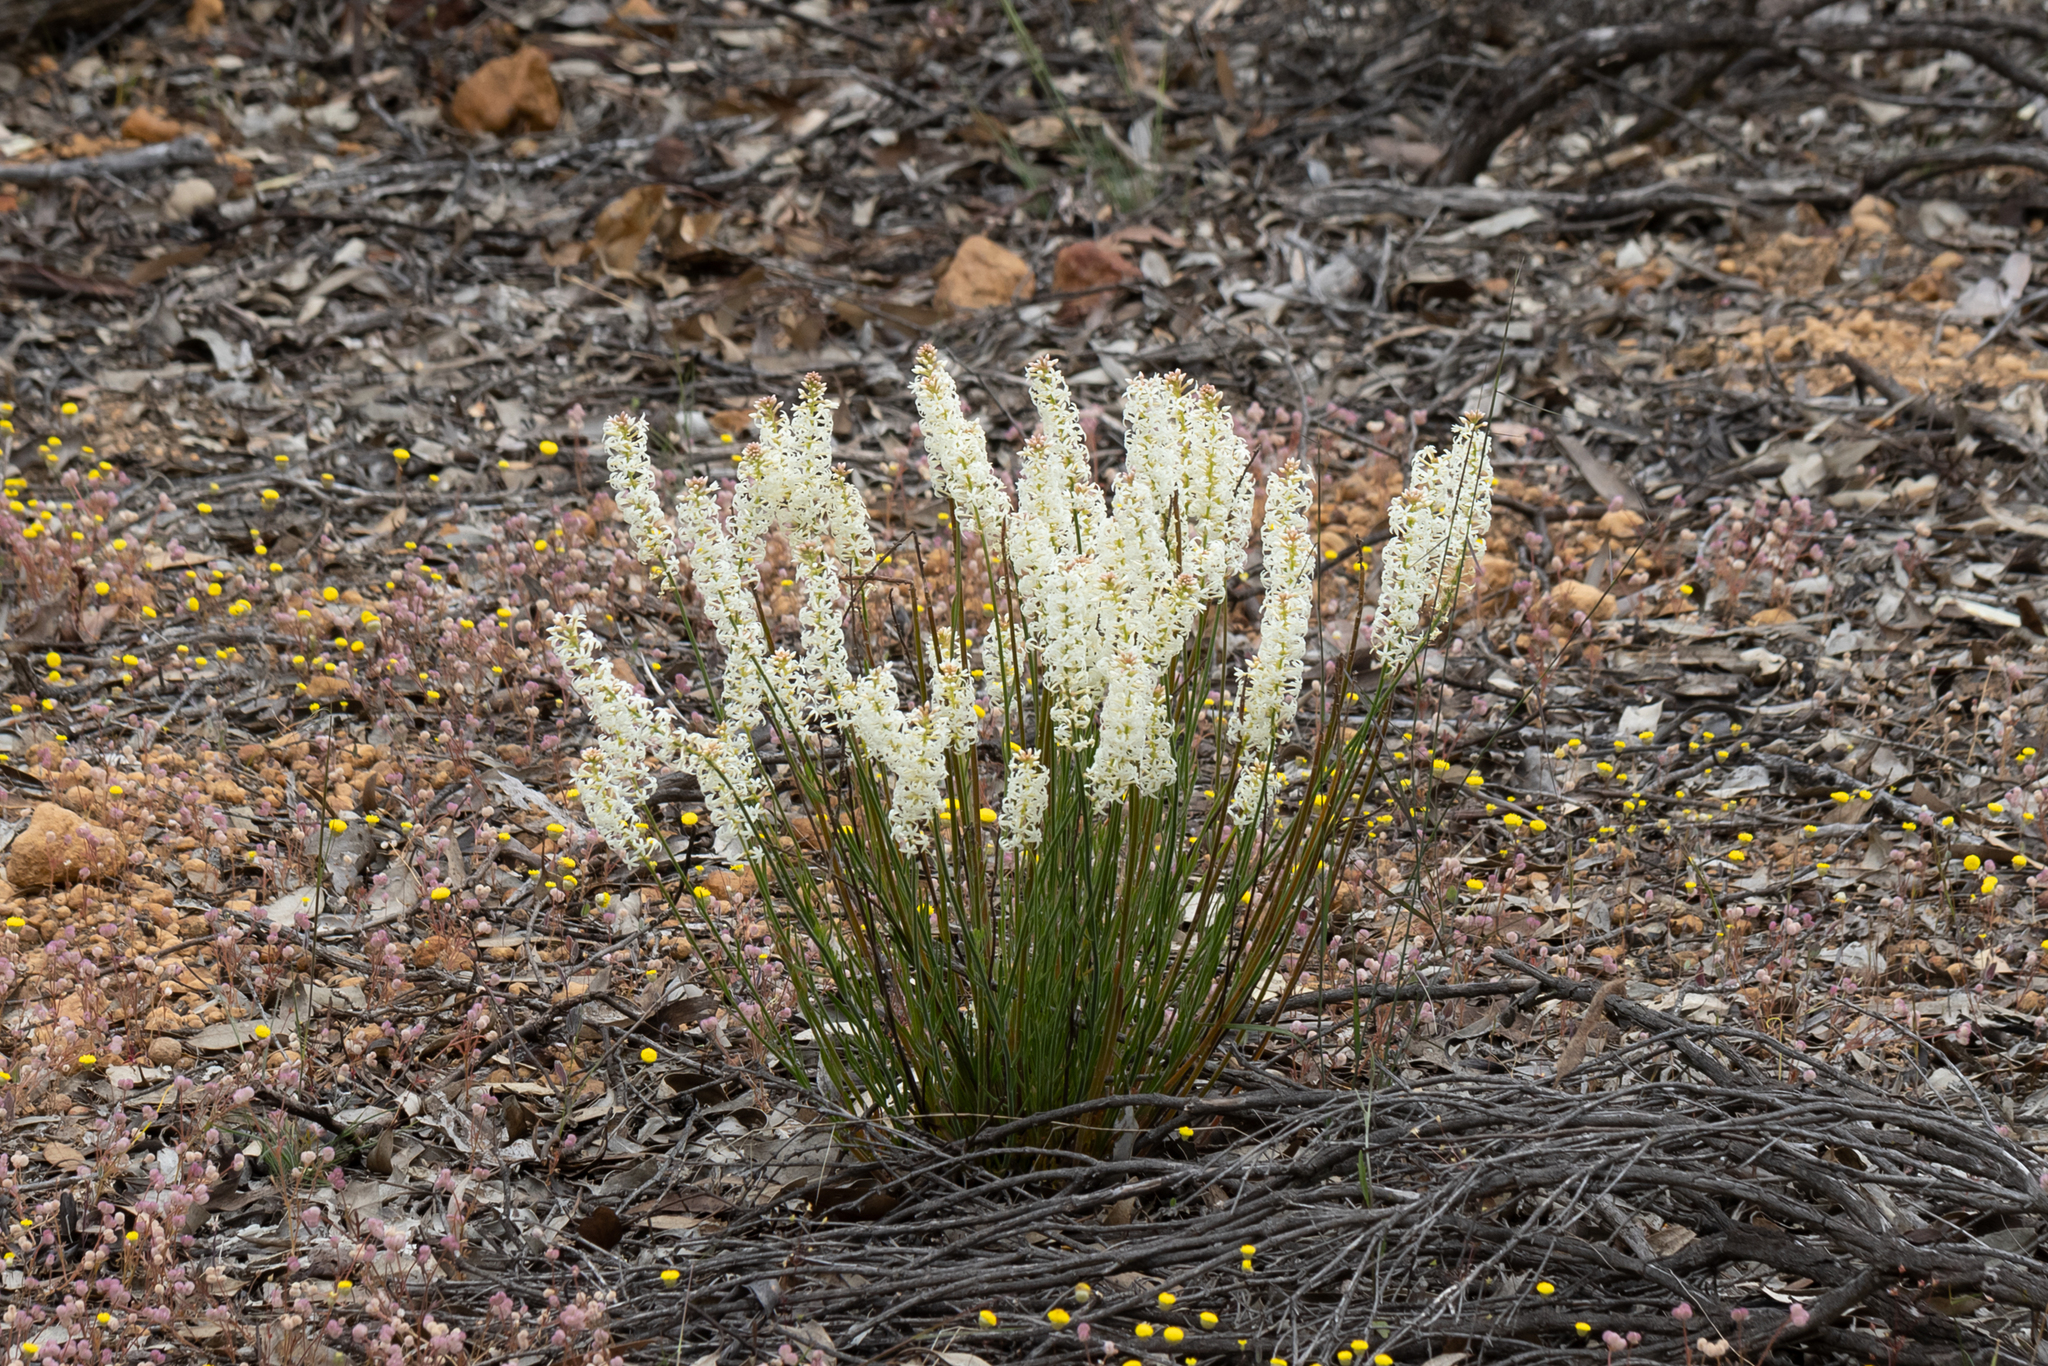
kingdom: Plantae
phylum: Tracheophyta
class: Magnoliopsida
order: Celastrales
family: Celastraceae
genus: Stackhousia
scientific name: Stackhousia monogyna
